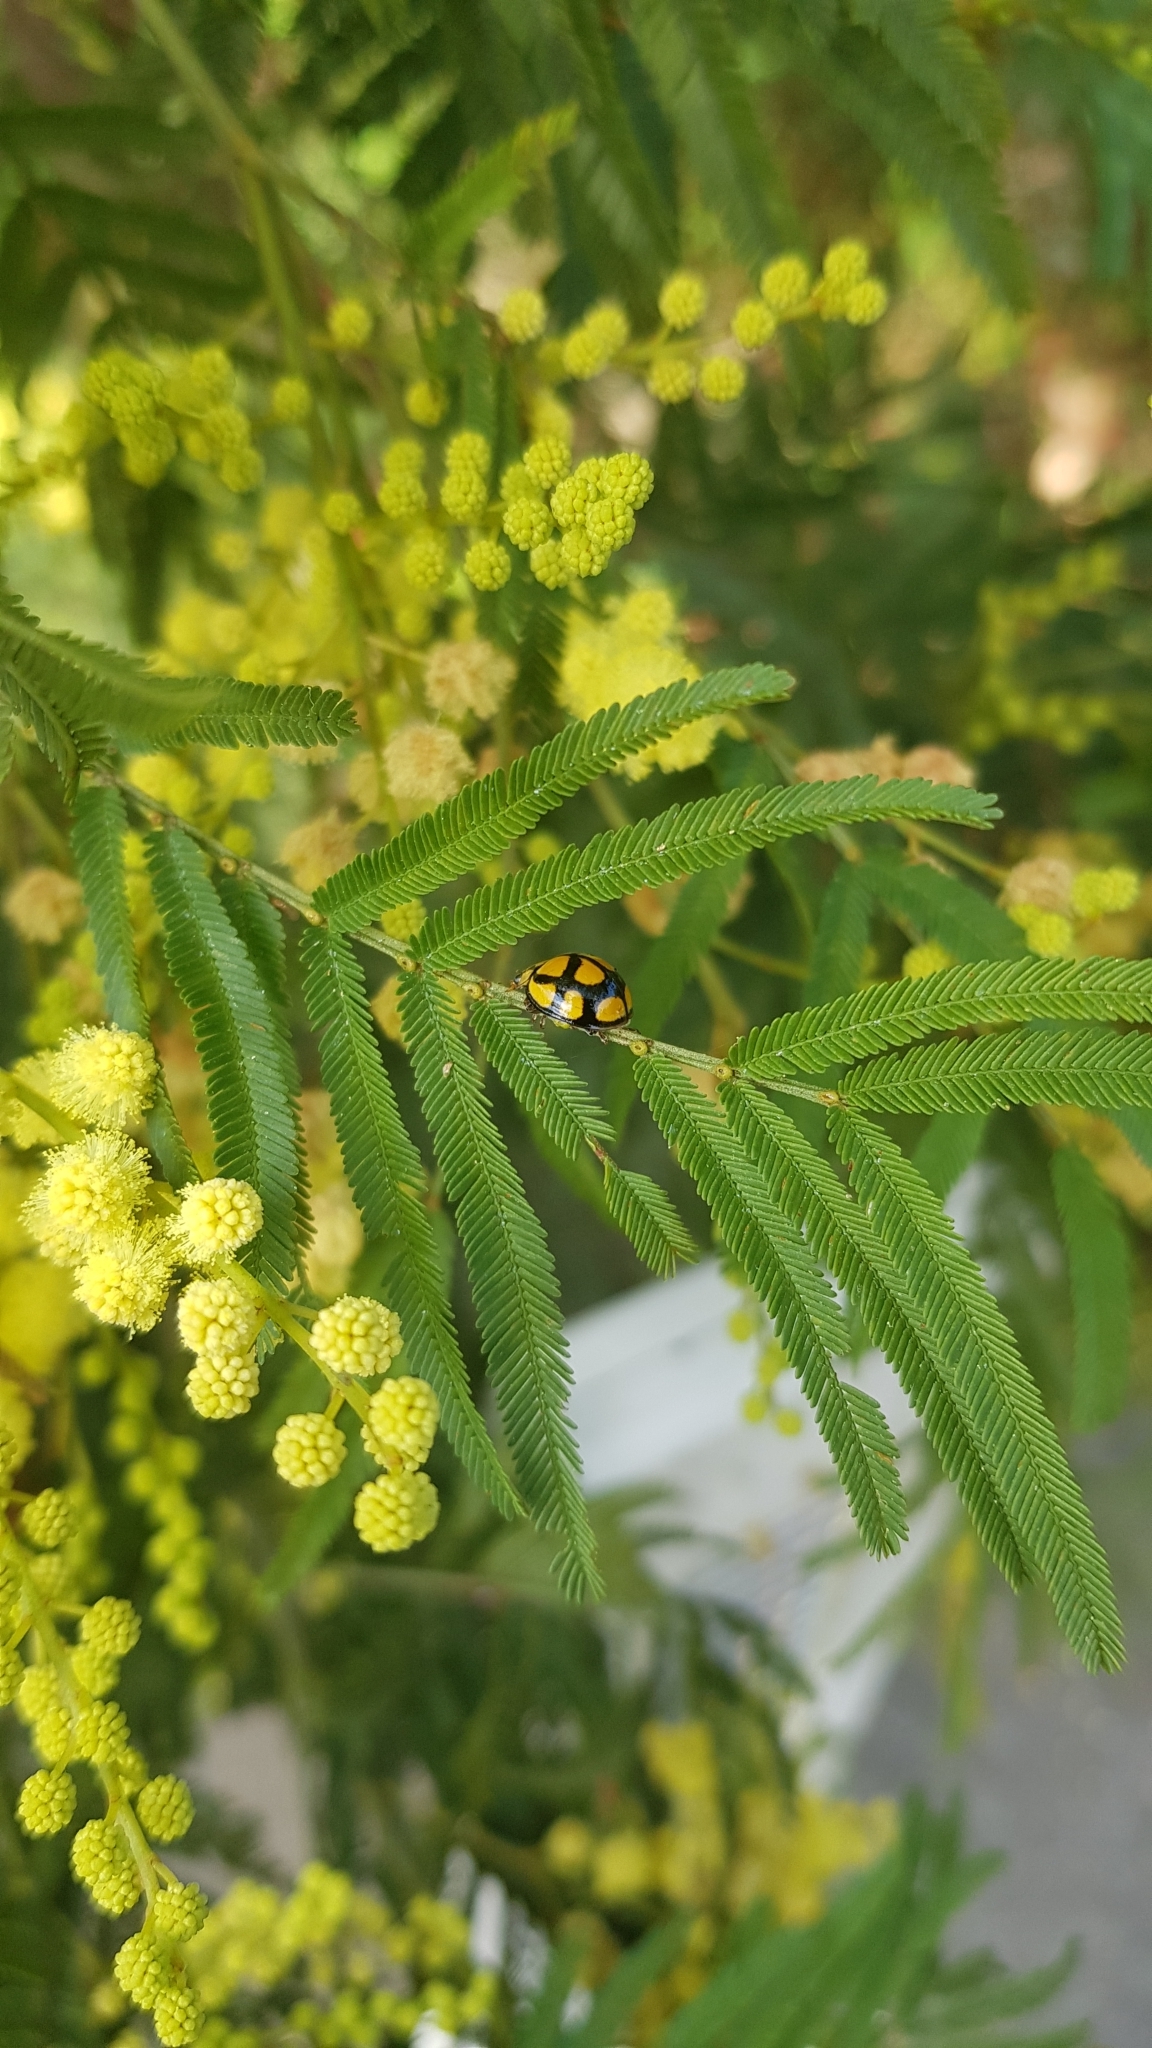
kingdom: Animalia
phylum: Arthropoda
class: Insecta
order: Coleoptera
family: Coccinellidae
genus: Harmonia
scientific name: Harmonia
